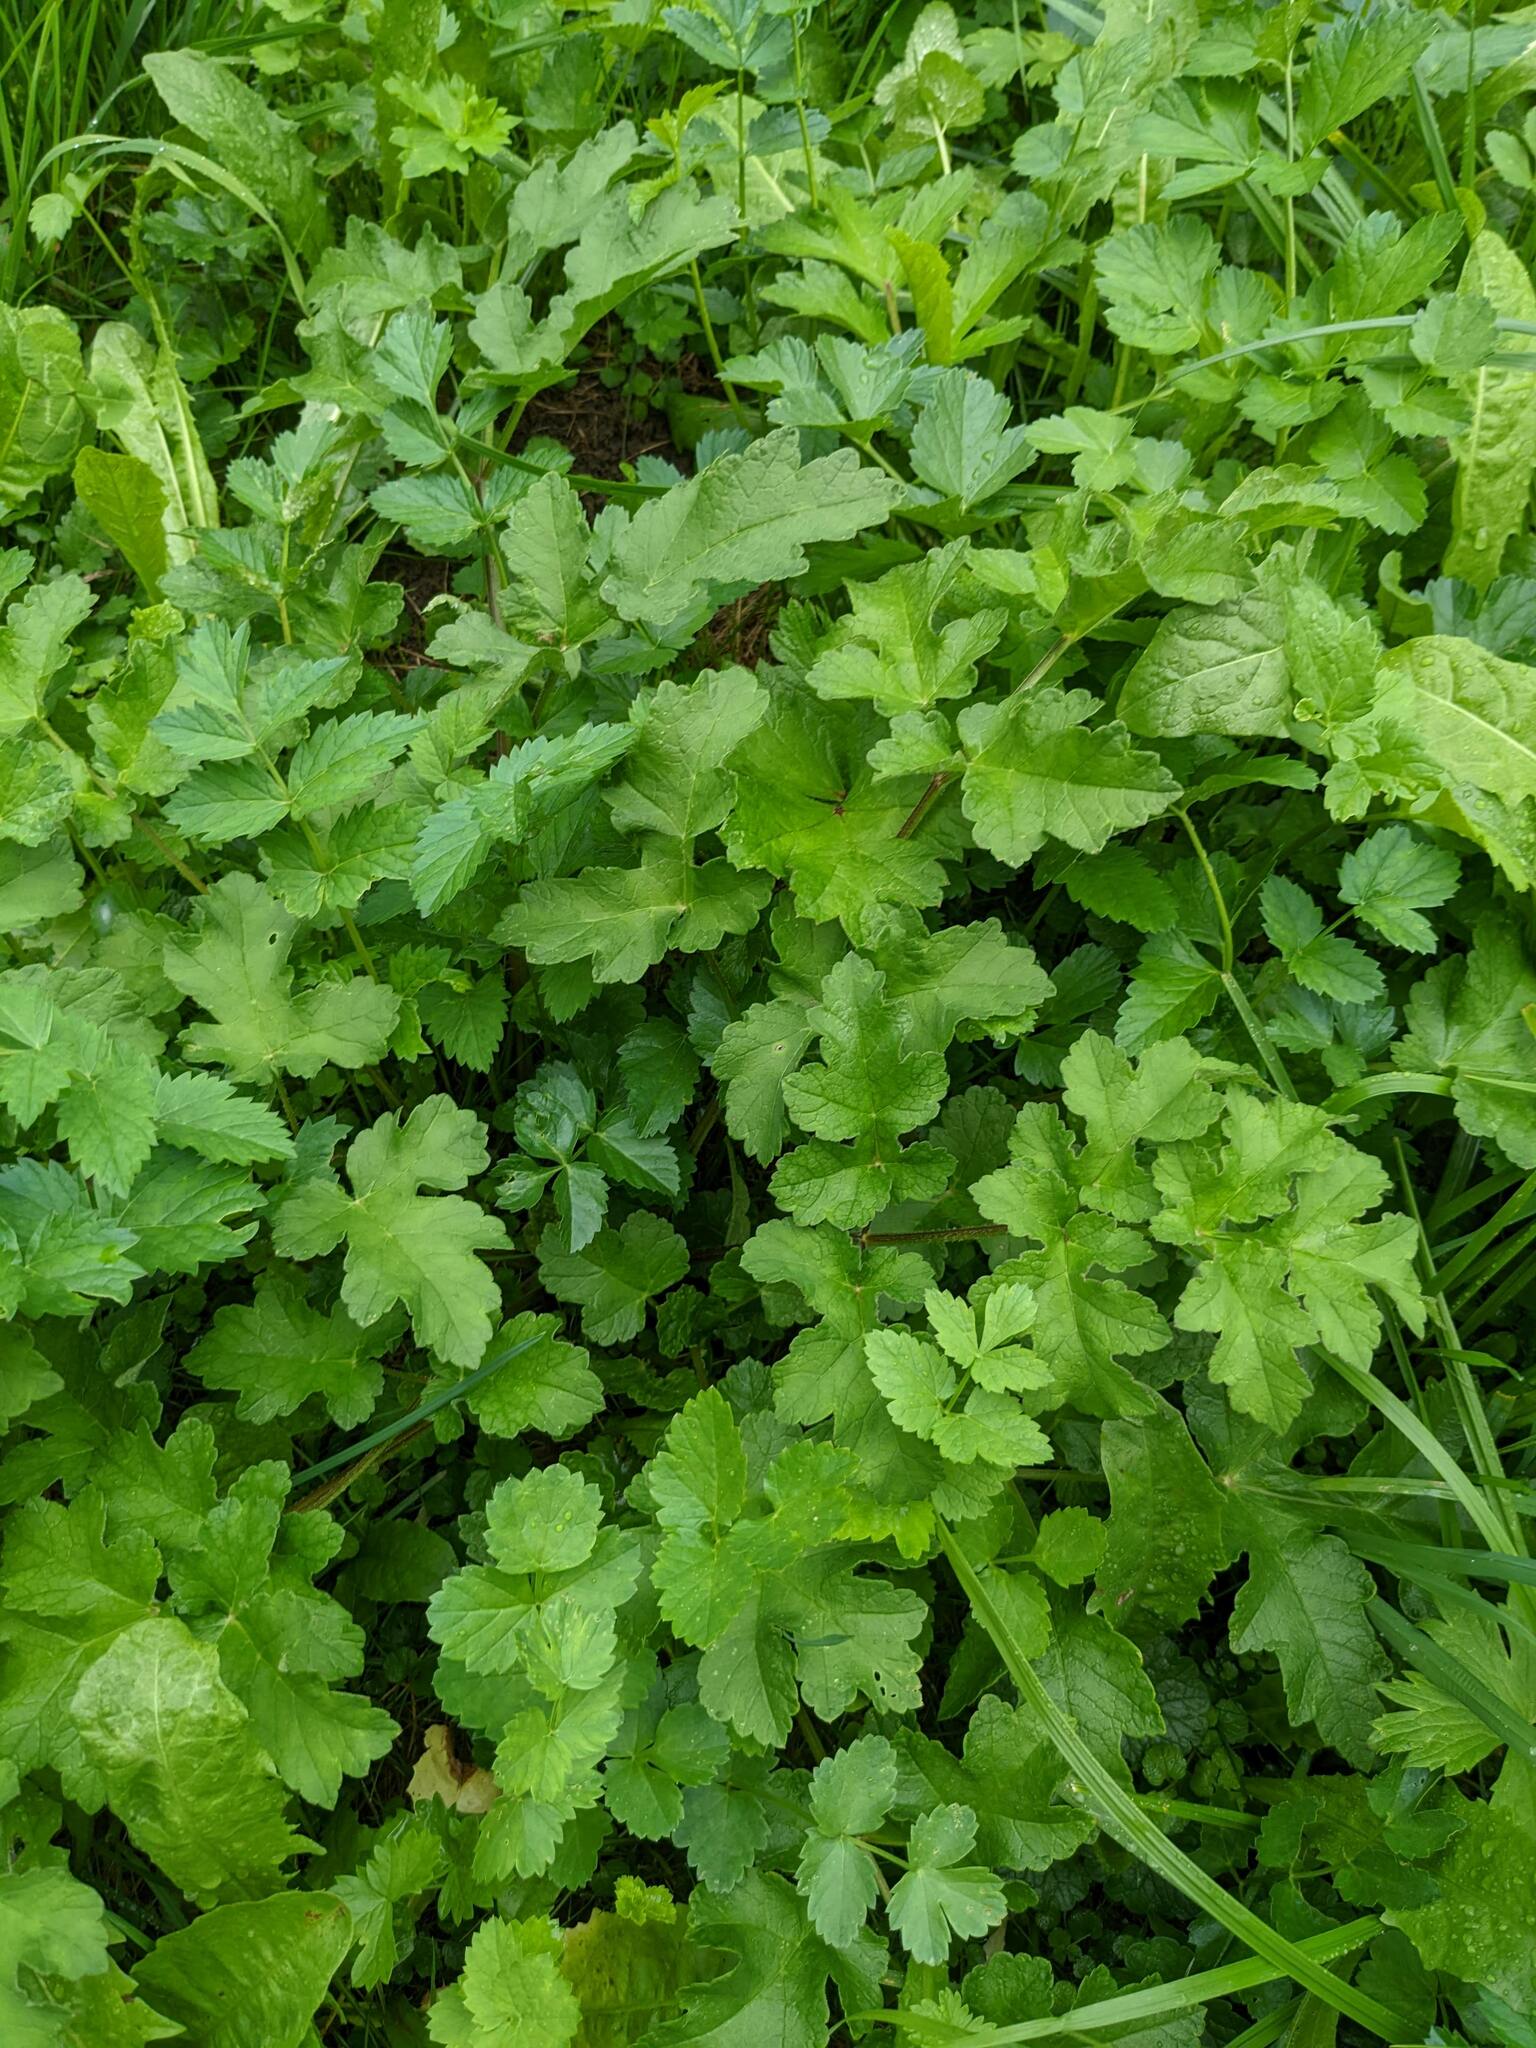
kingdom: Plantae
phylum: Tracheophyta
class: Magnoliopsida
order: Apiales
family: Apiaceae
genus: Heracleum
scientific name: Heracleum sphondylium
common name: Hogweed
